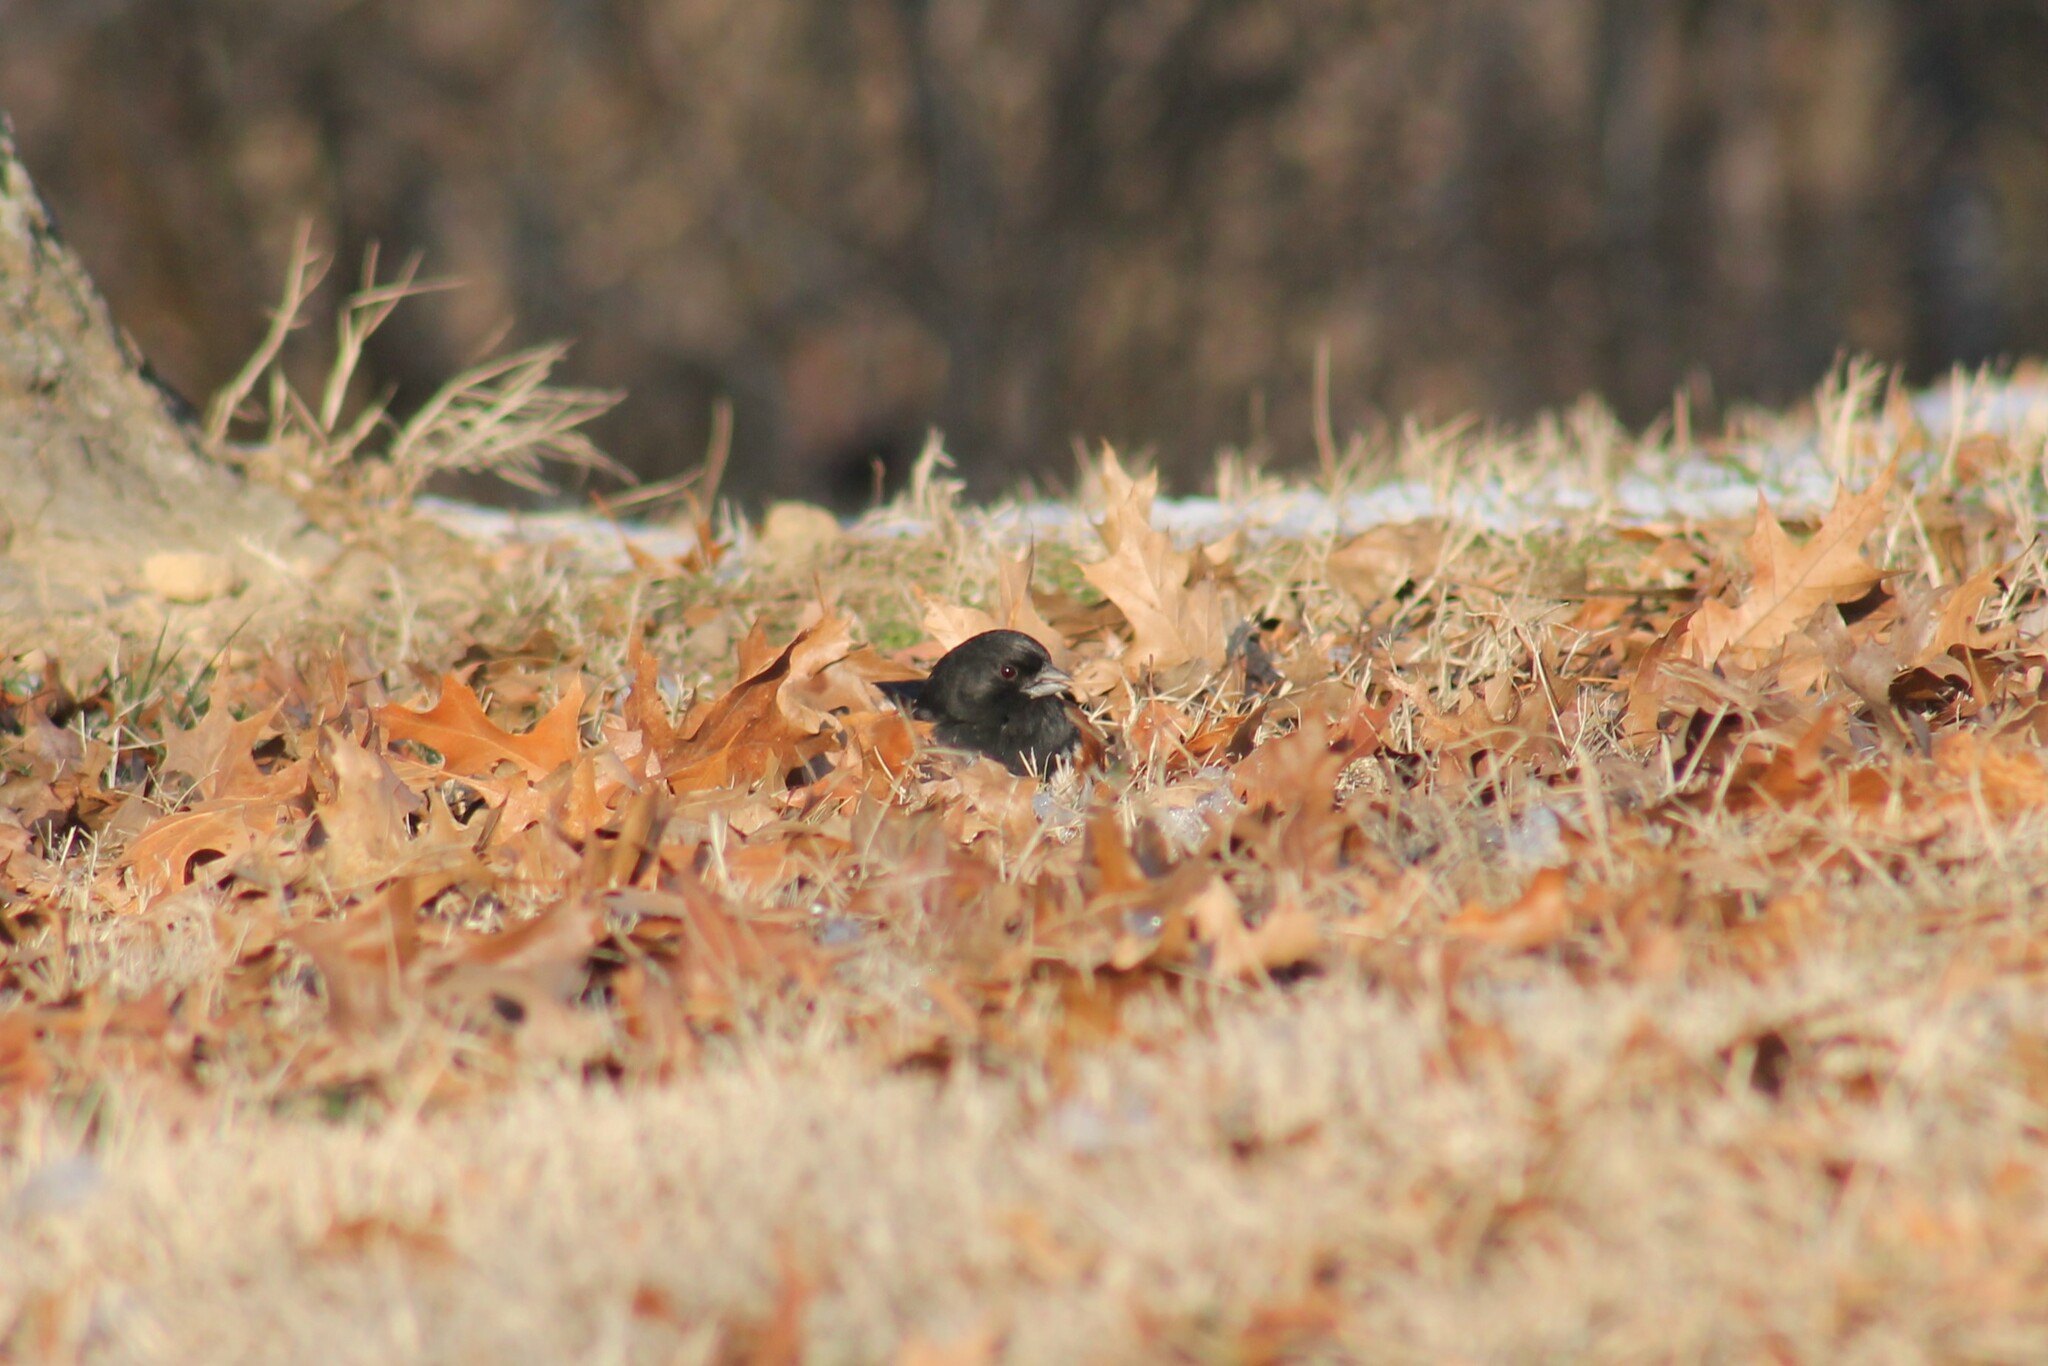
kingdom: Animalia
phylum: Chordata
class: Aves
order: Passeriformes
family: Passerellidae
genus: Pipilo
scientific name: Pipilo erythrophthalmus
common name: Eastern towhee
